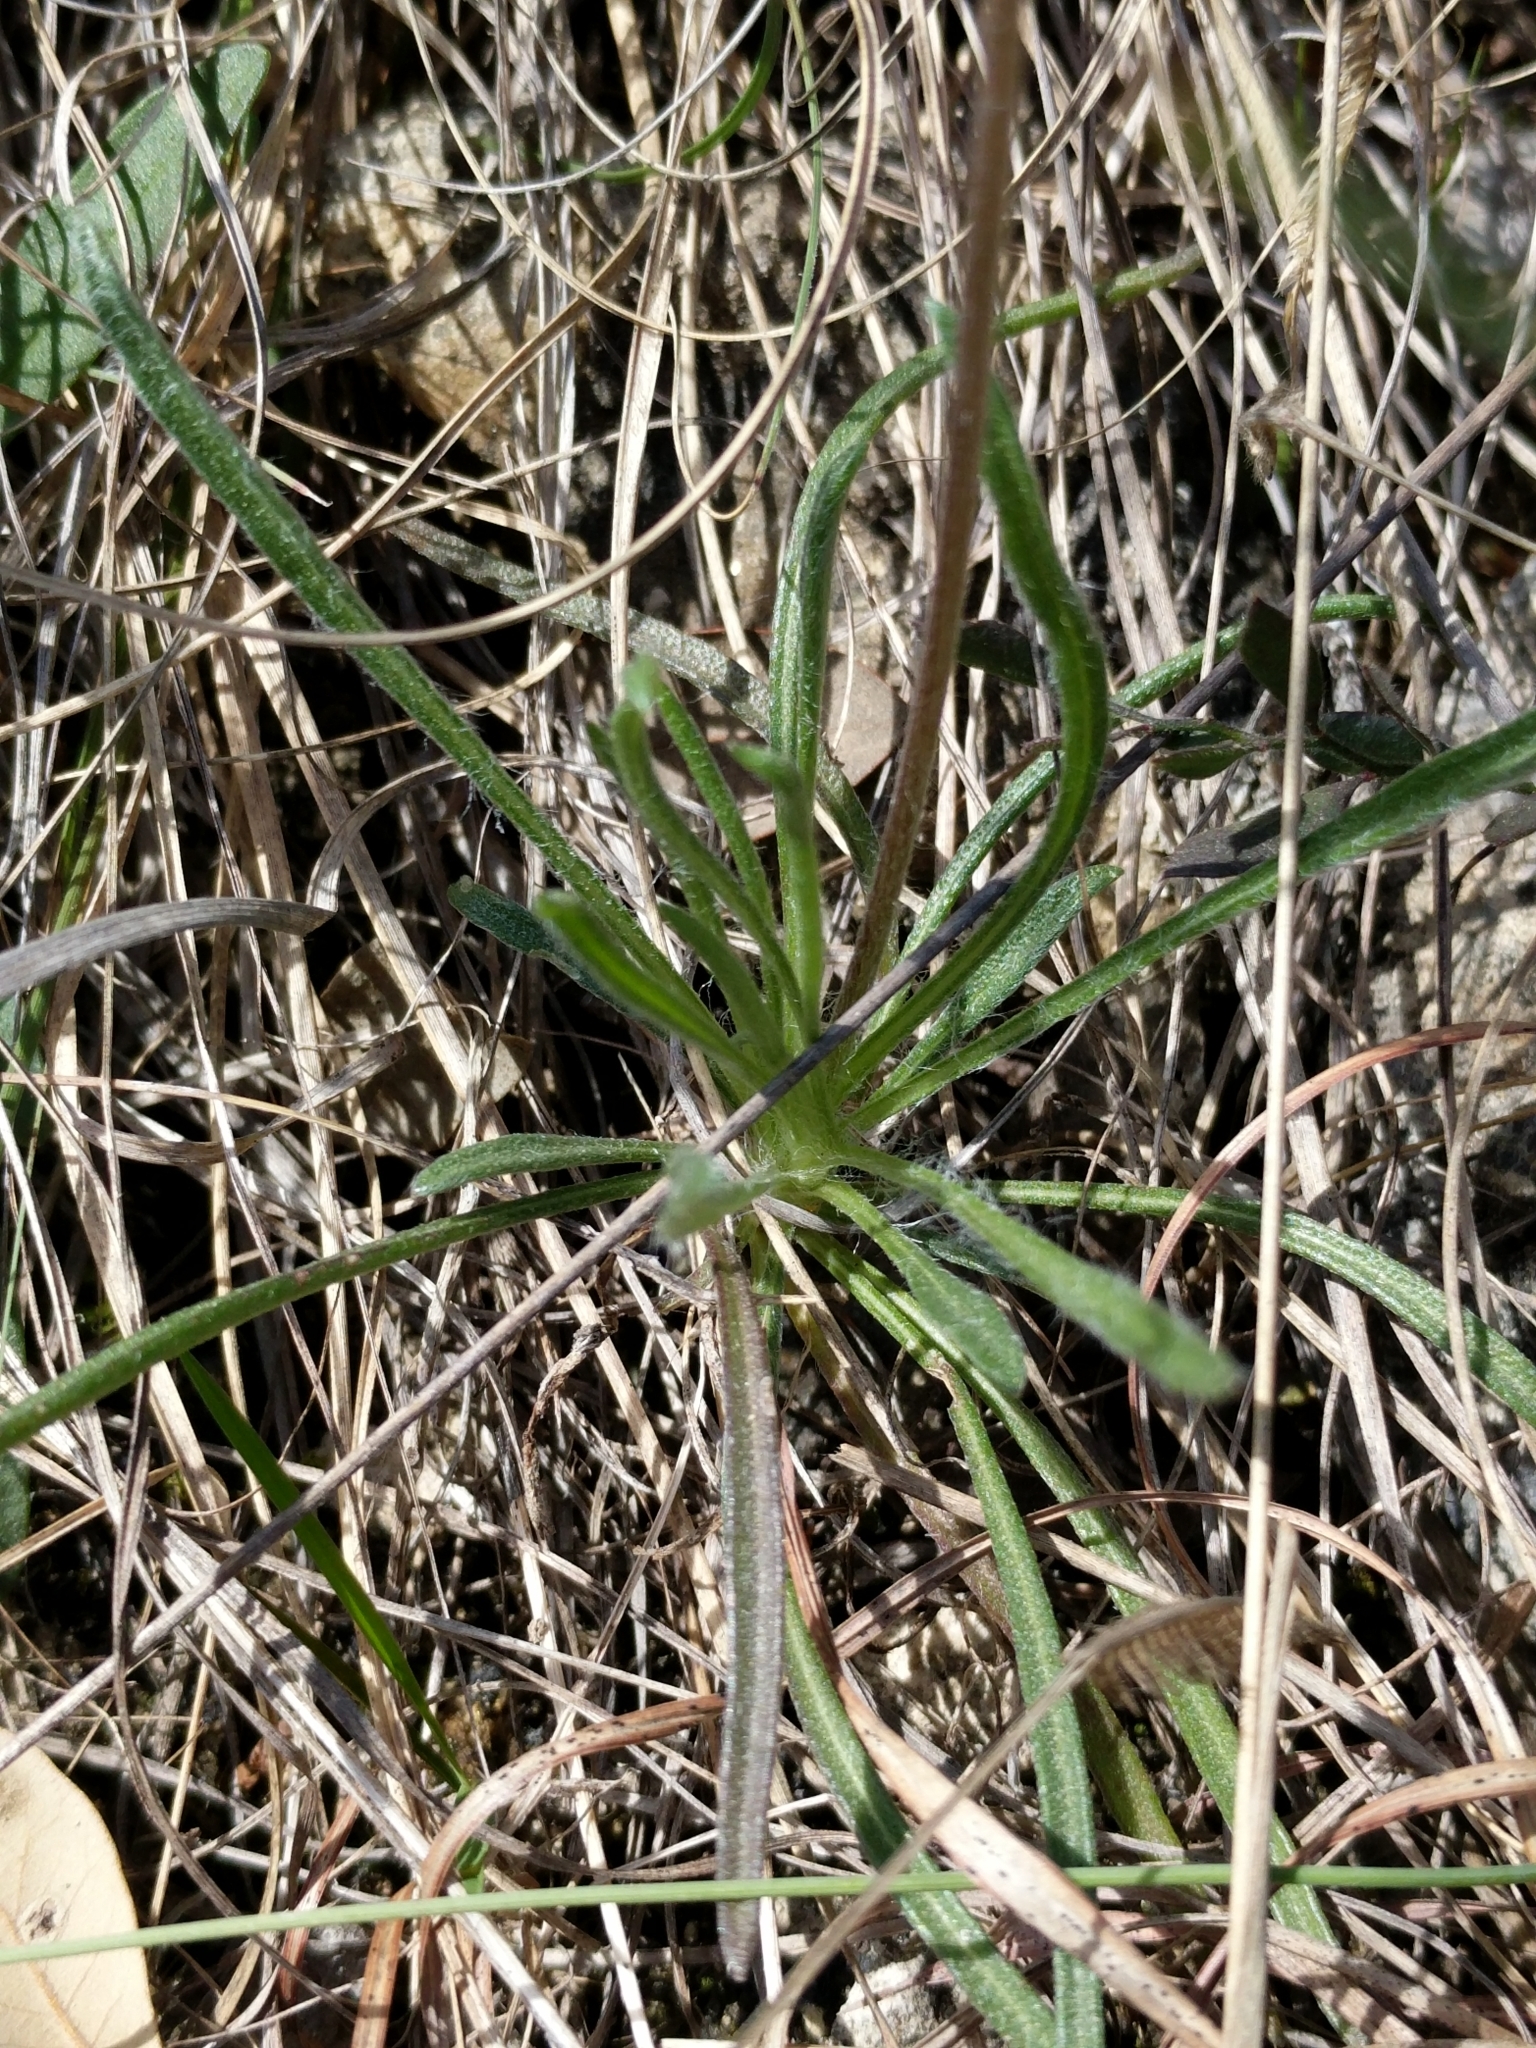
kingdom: Plantae
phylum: Tracheophyta
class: Magnoliopsida
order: Asterales
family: Asteraceae
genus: Tetraneuris
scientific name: Tetraneuris scaposa
